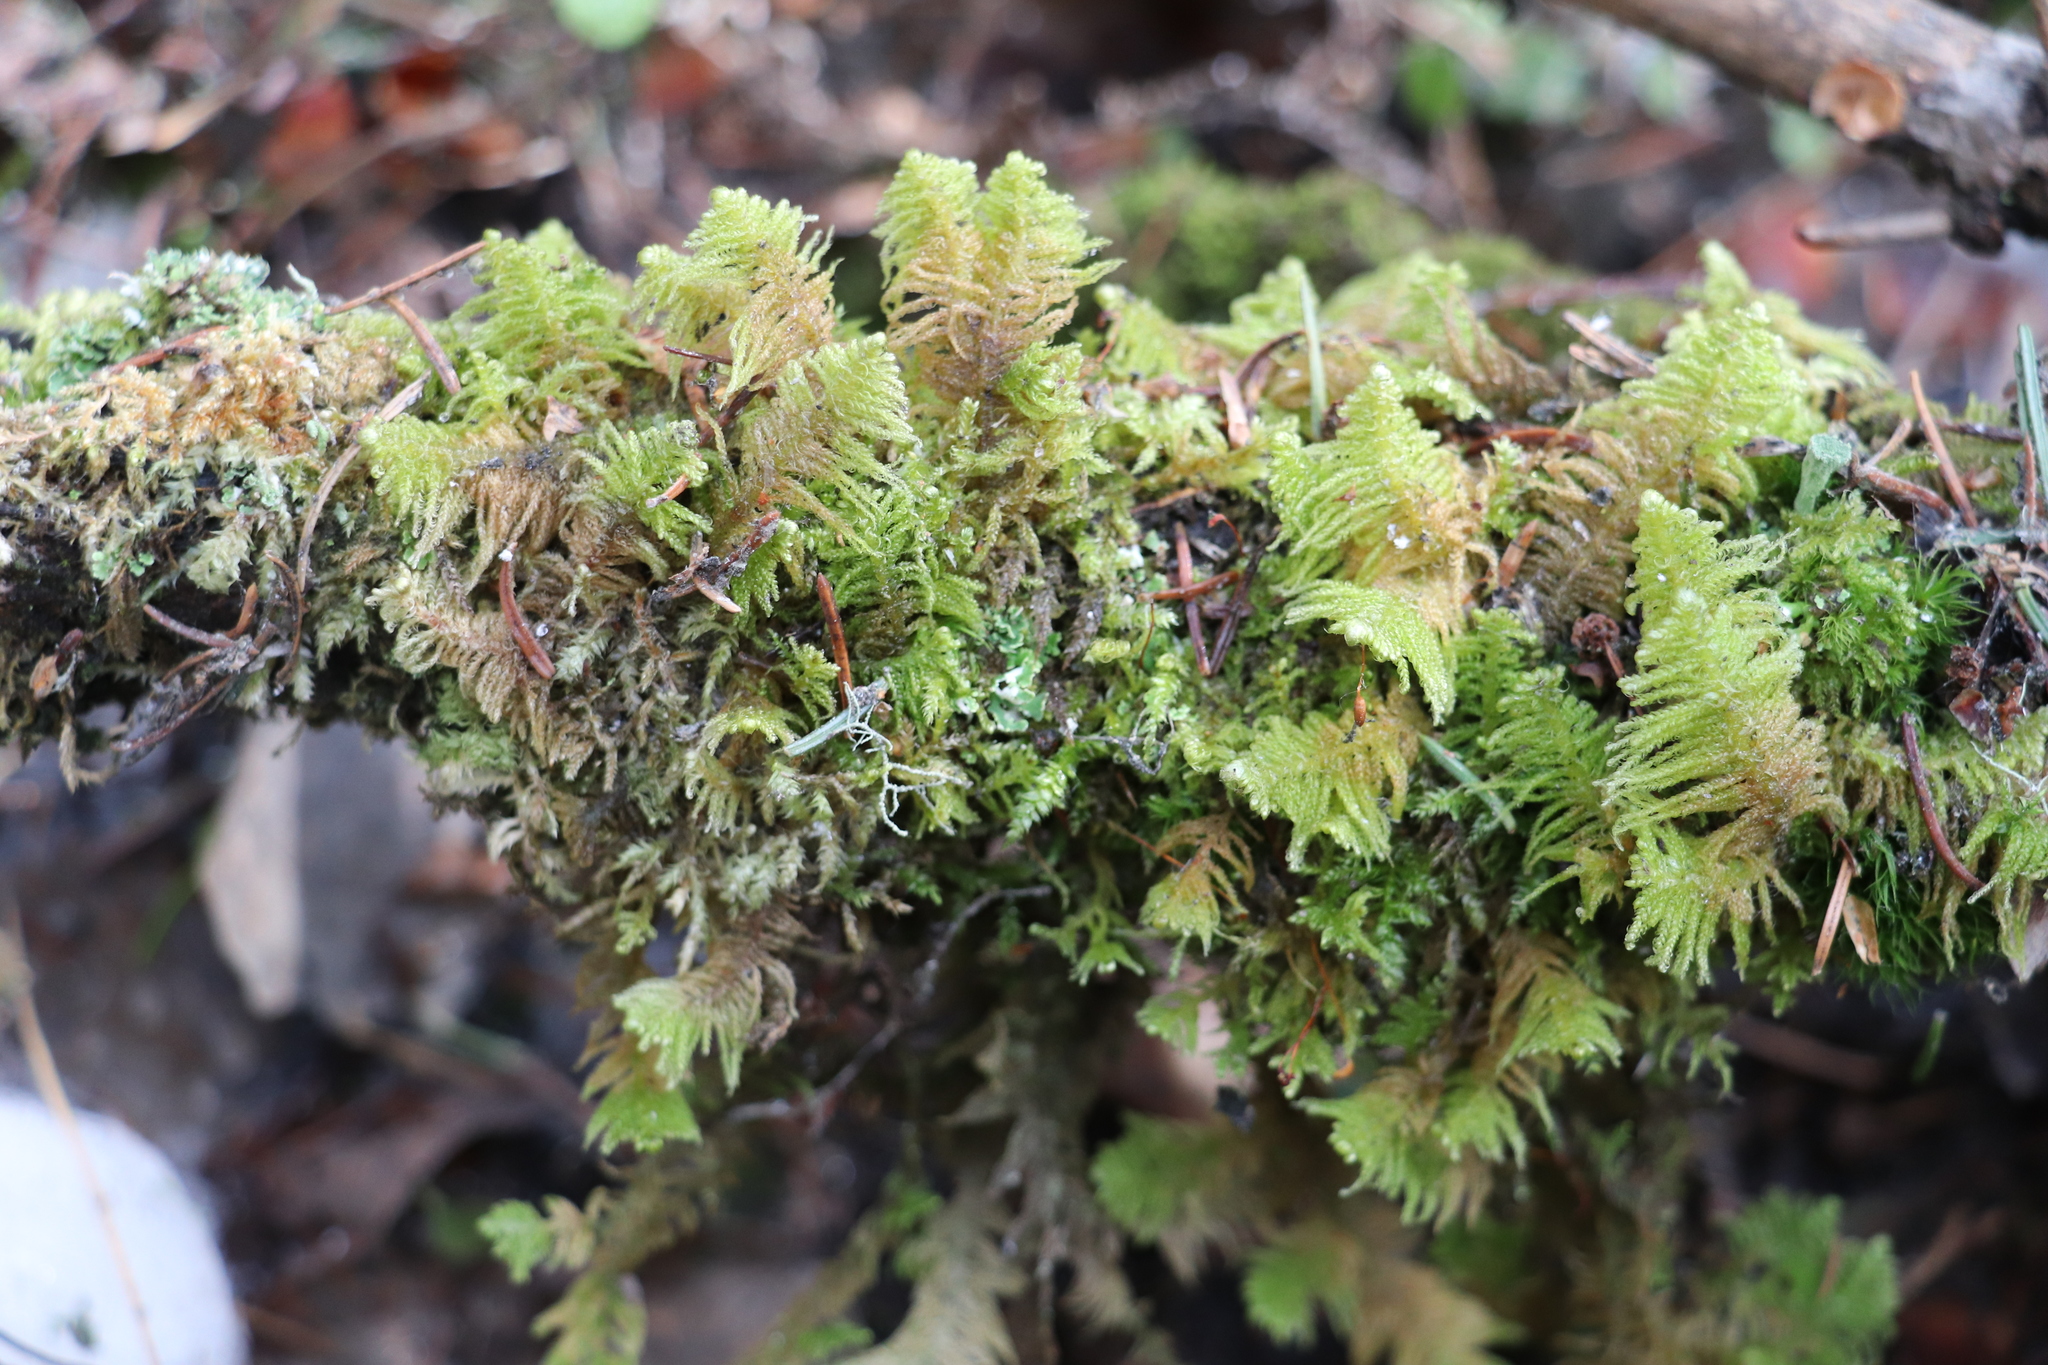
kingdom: Plantae
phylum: Bryophyta
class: Bryopsida
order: Hypnales
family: Pylaisiaceae
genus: Ptilium
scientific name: Ptilium crista-castrensis
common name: Knight's plume moss
